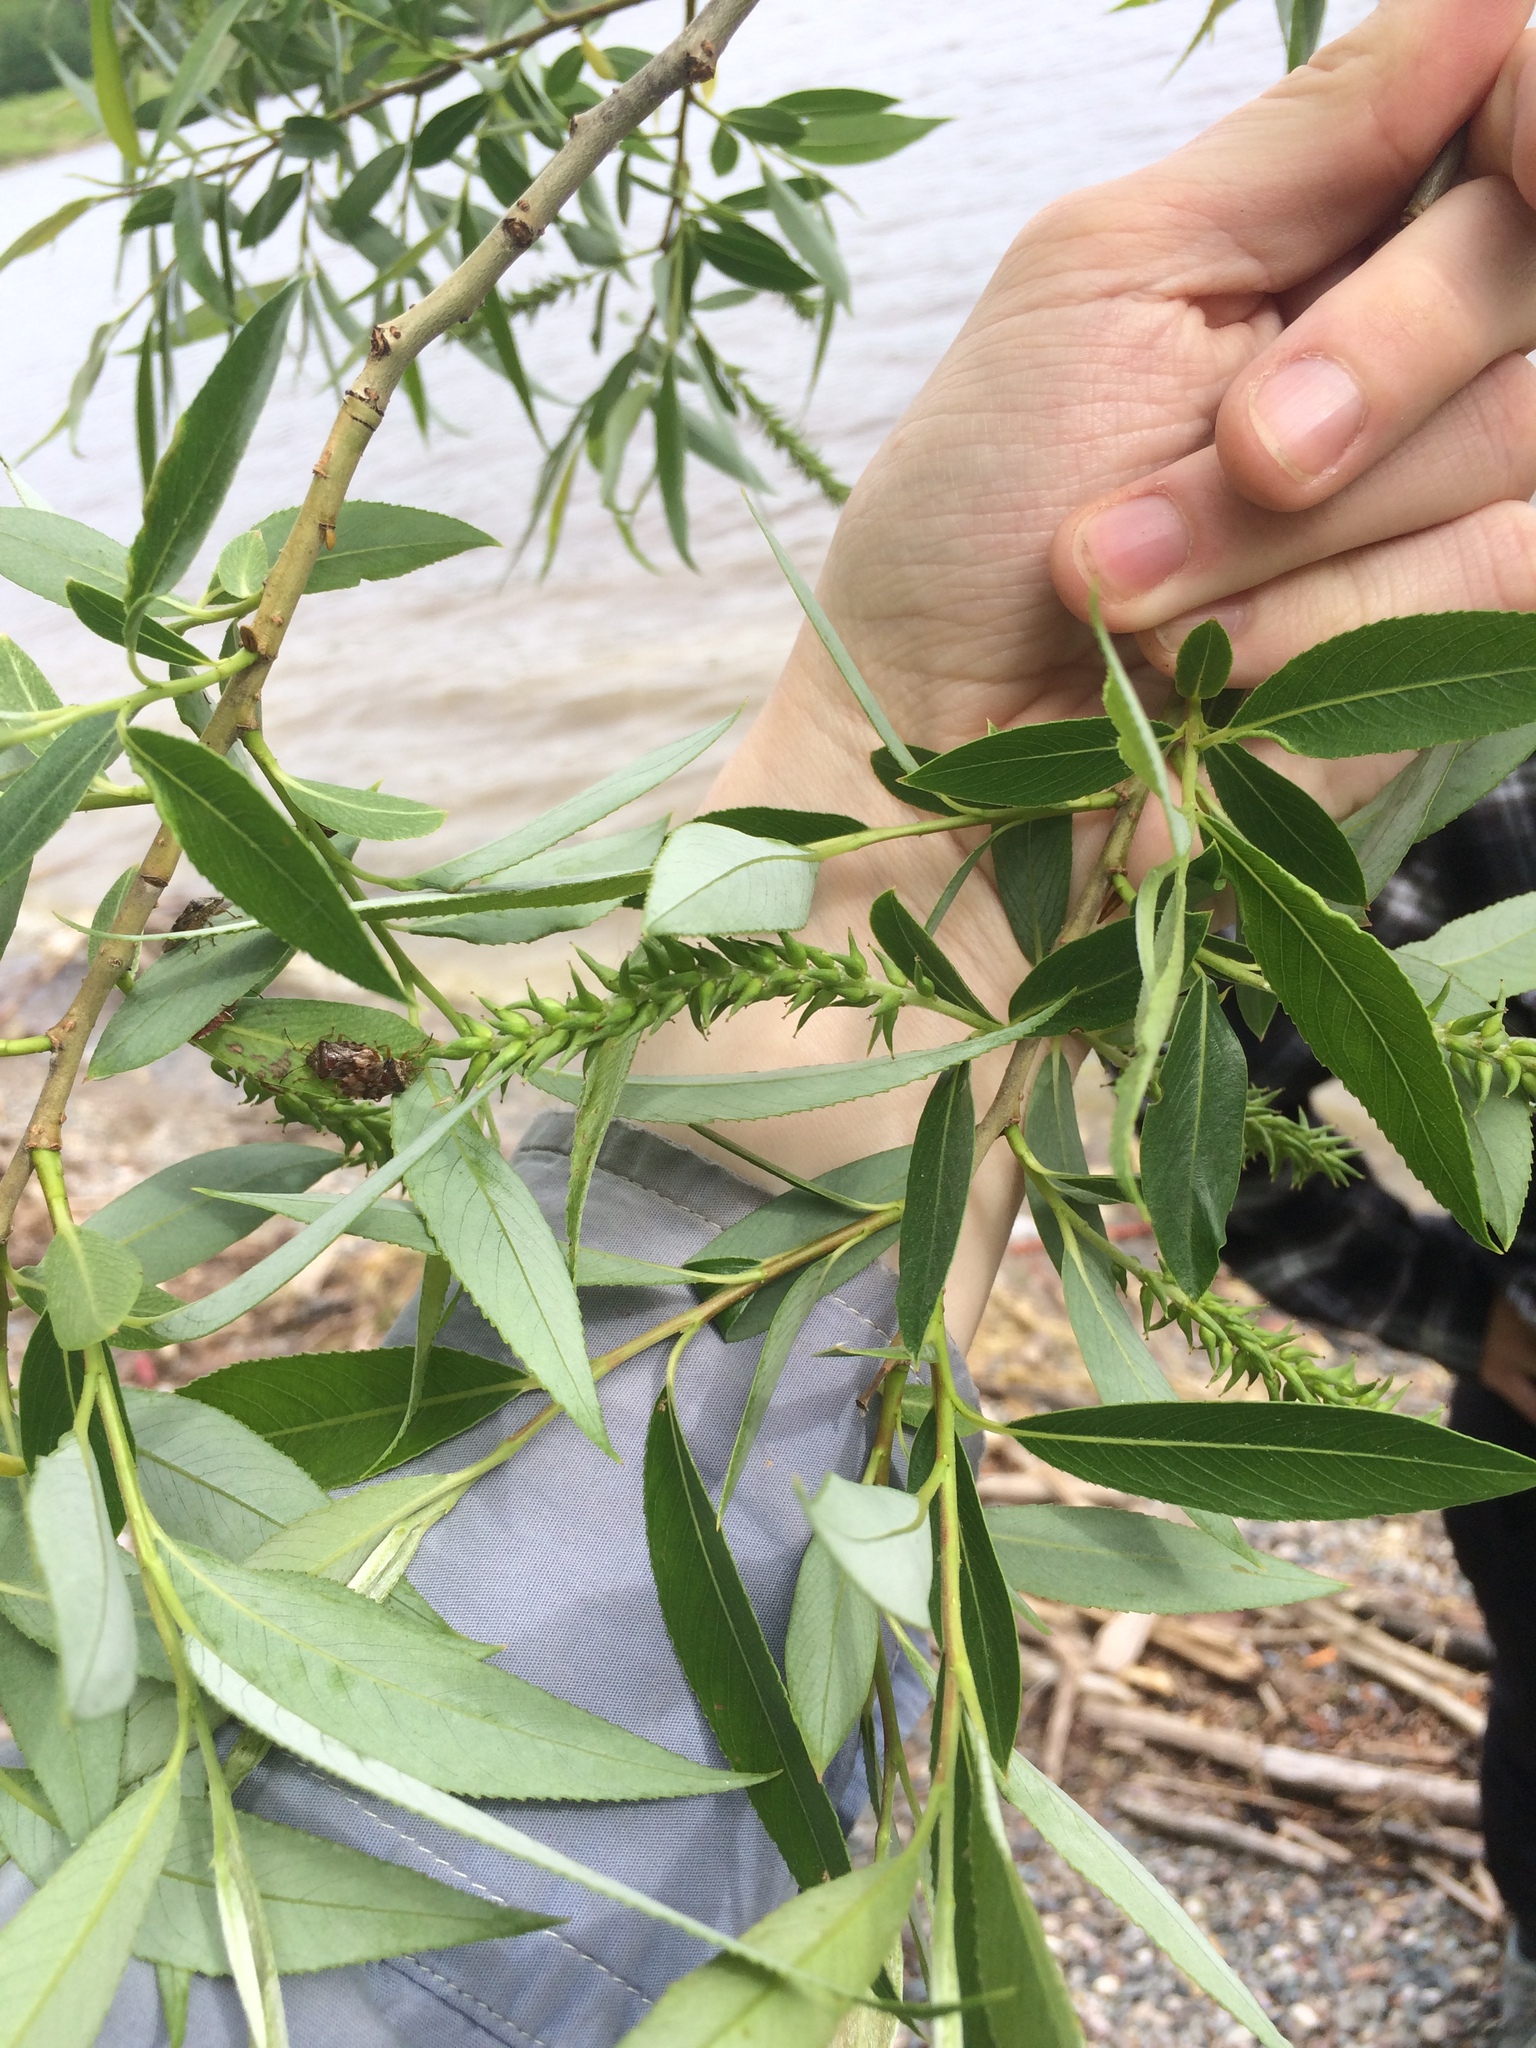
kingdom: Plantae
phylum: Tracheophyta
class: Magnoliopsida
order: Malpighiales
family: Salicaceae
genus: Salix
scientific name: Salix fragilis
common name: Crack willow
